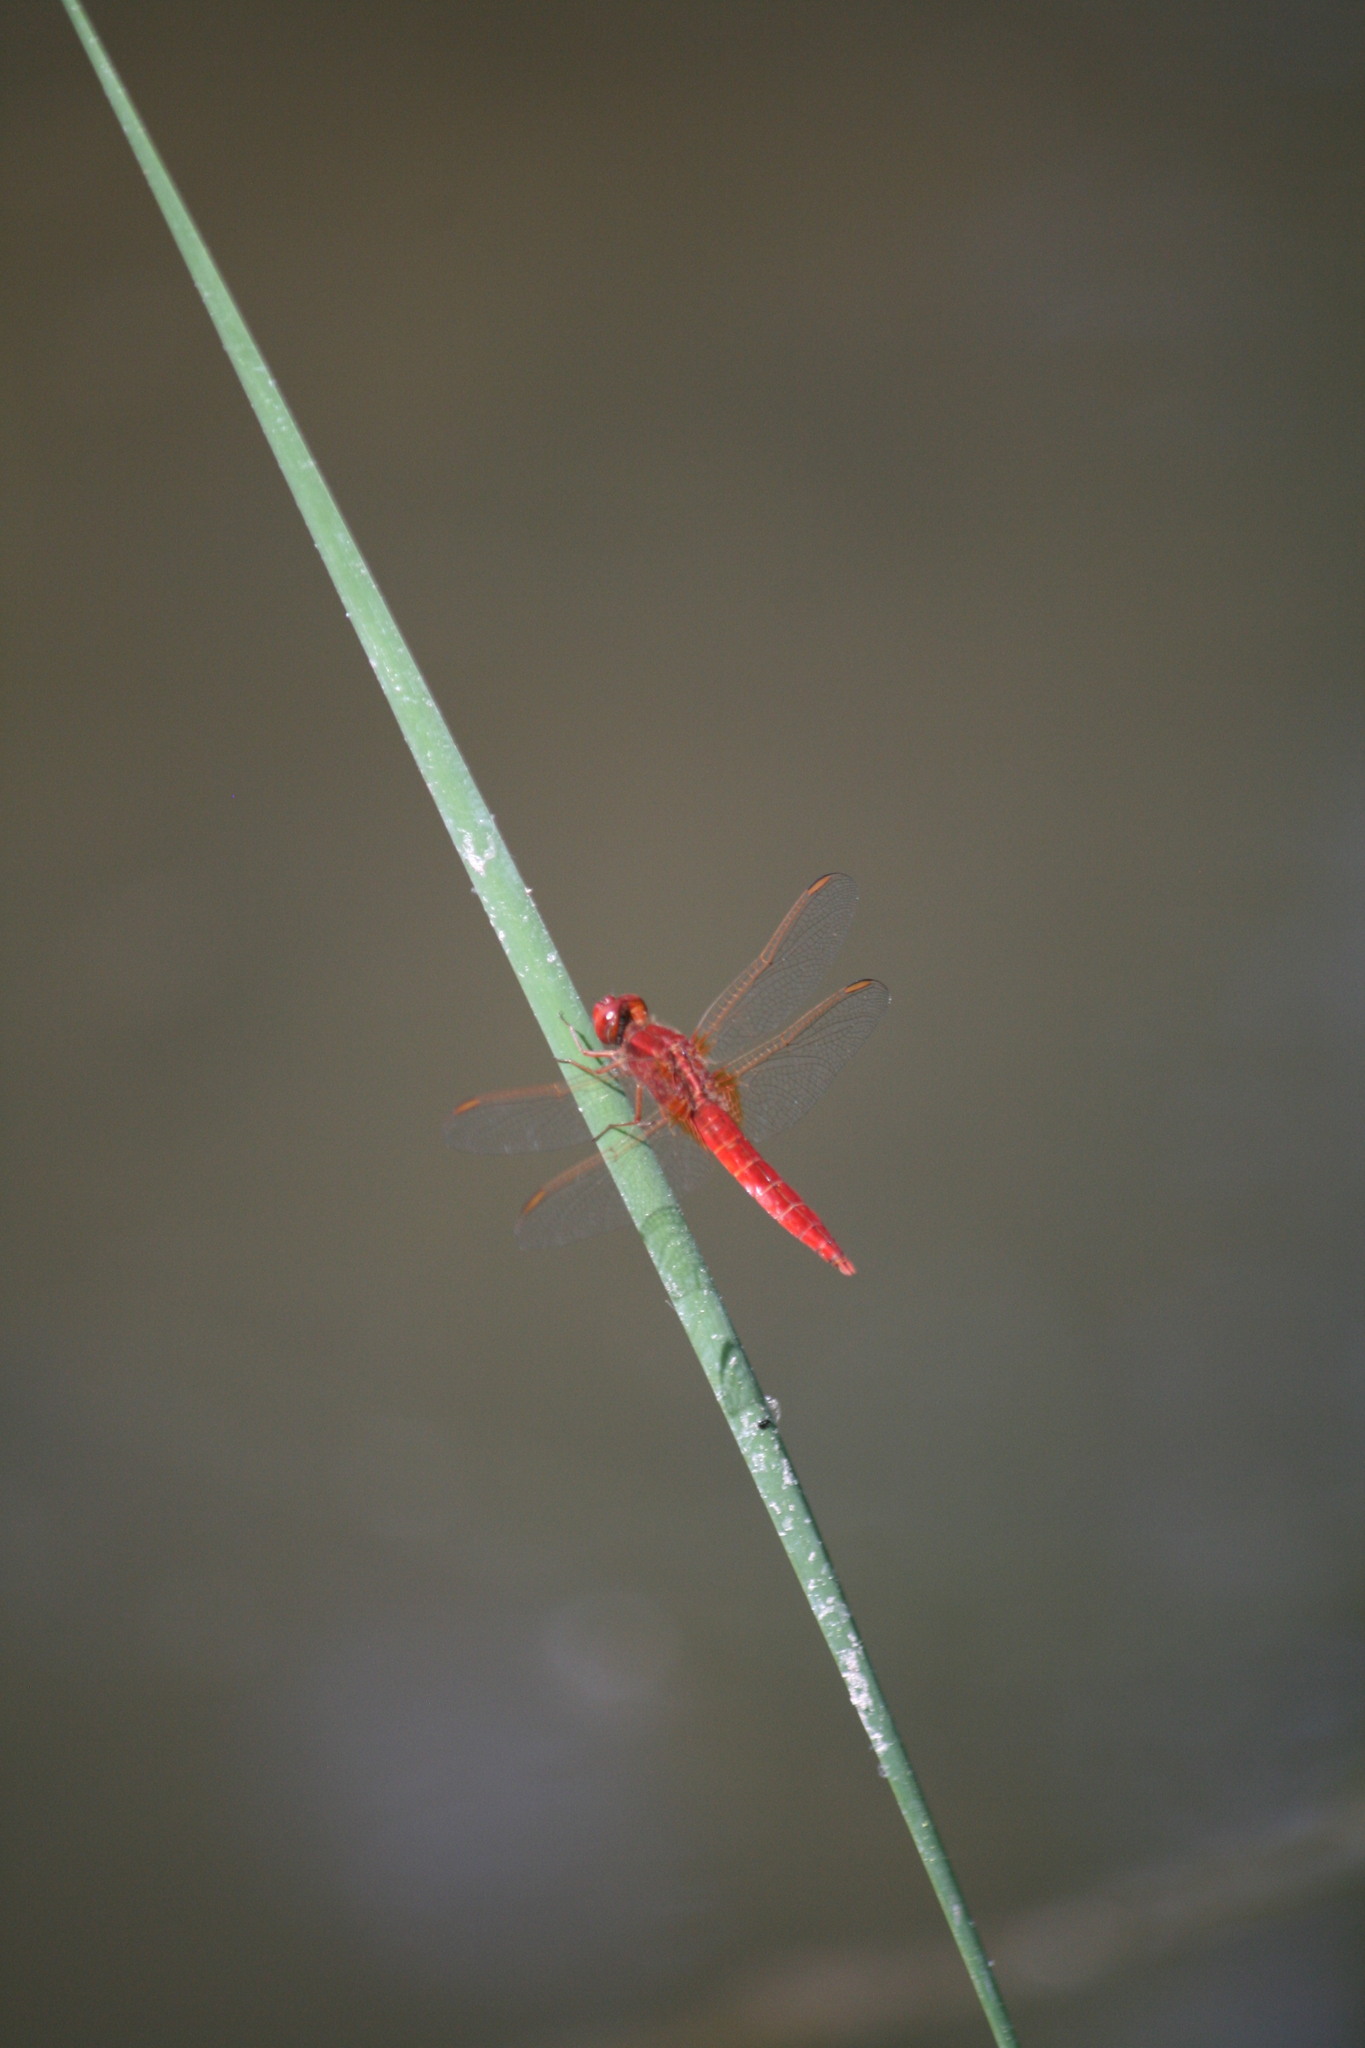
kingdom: Animalia
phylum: Arthropoda
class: Insecta
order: Odonata
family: Libellulidae
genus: Crocothemis
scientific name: Crocothemis erythraea
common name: Scarlet dragonfly
